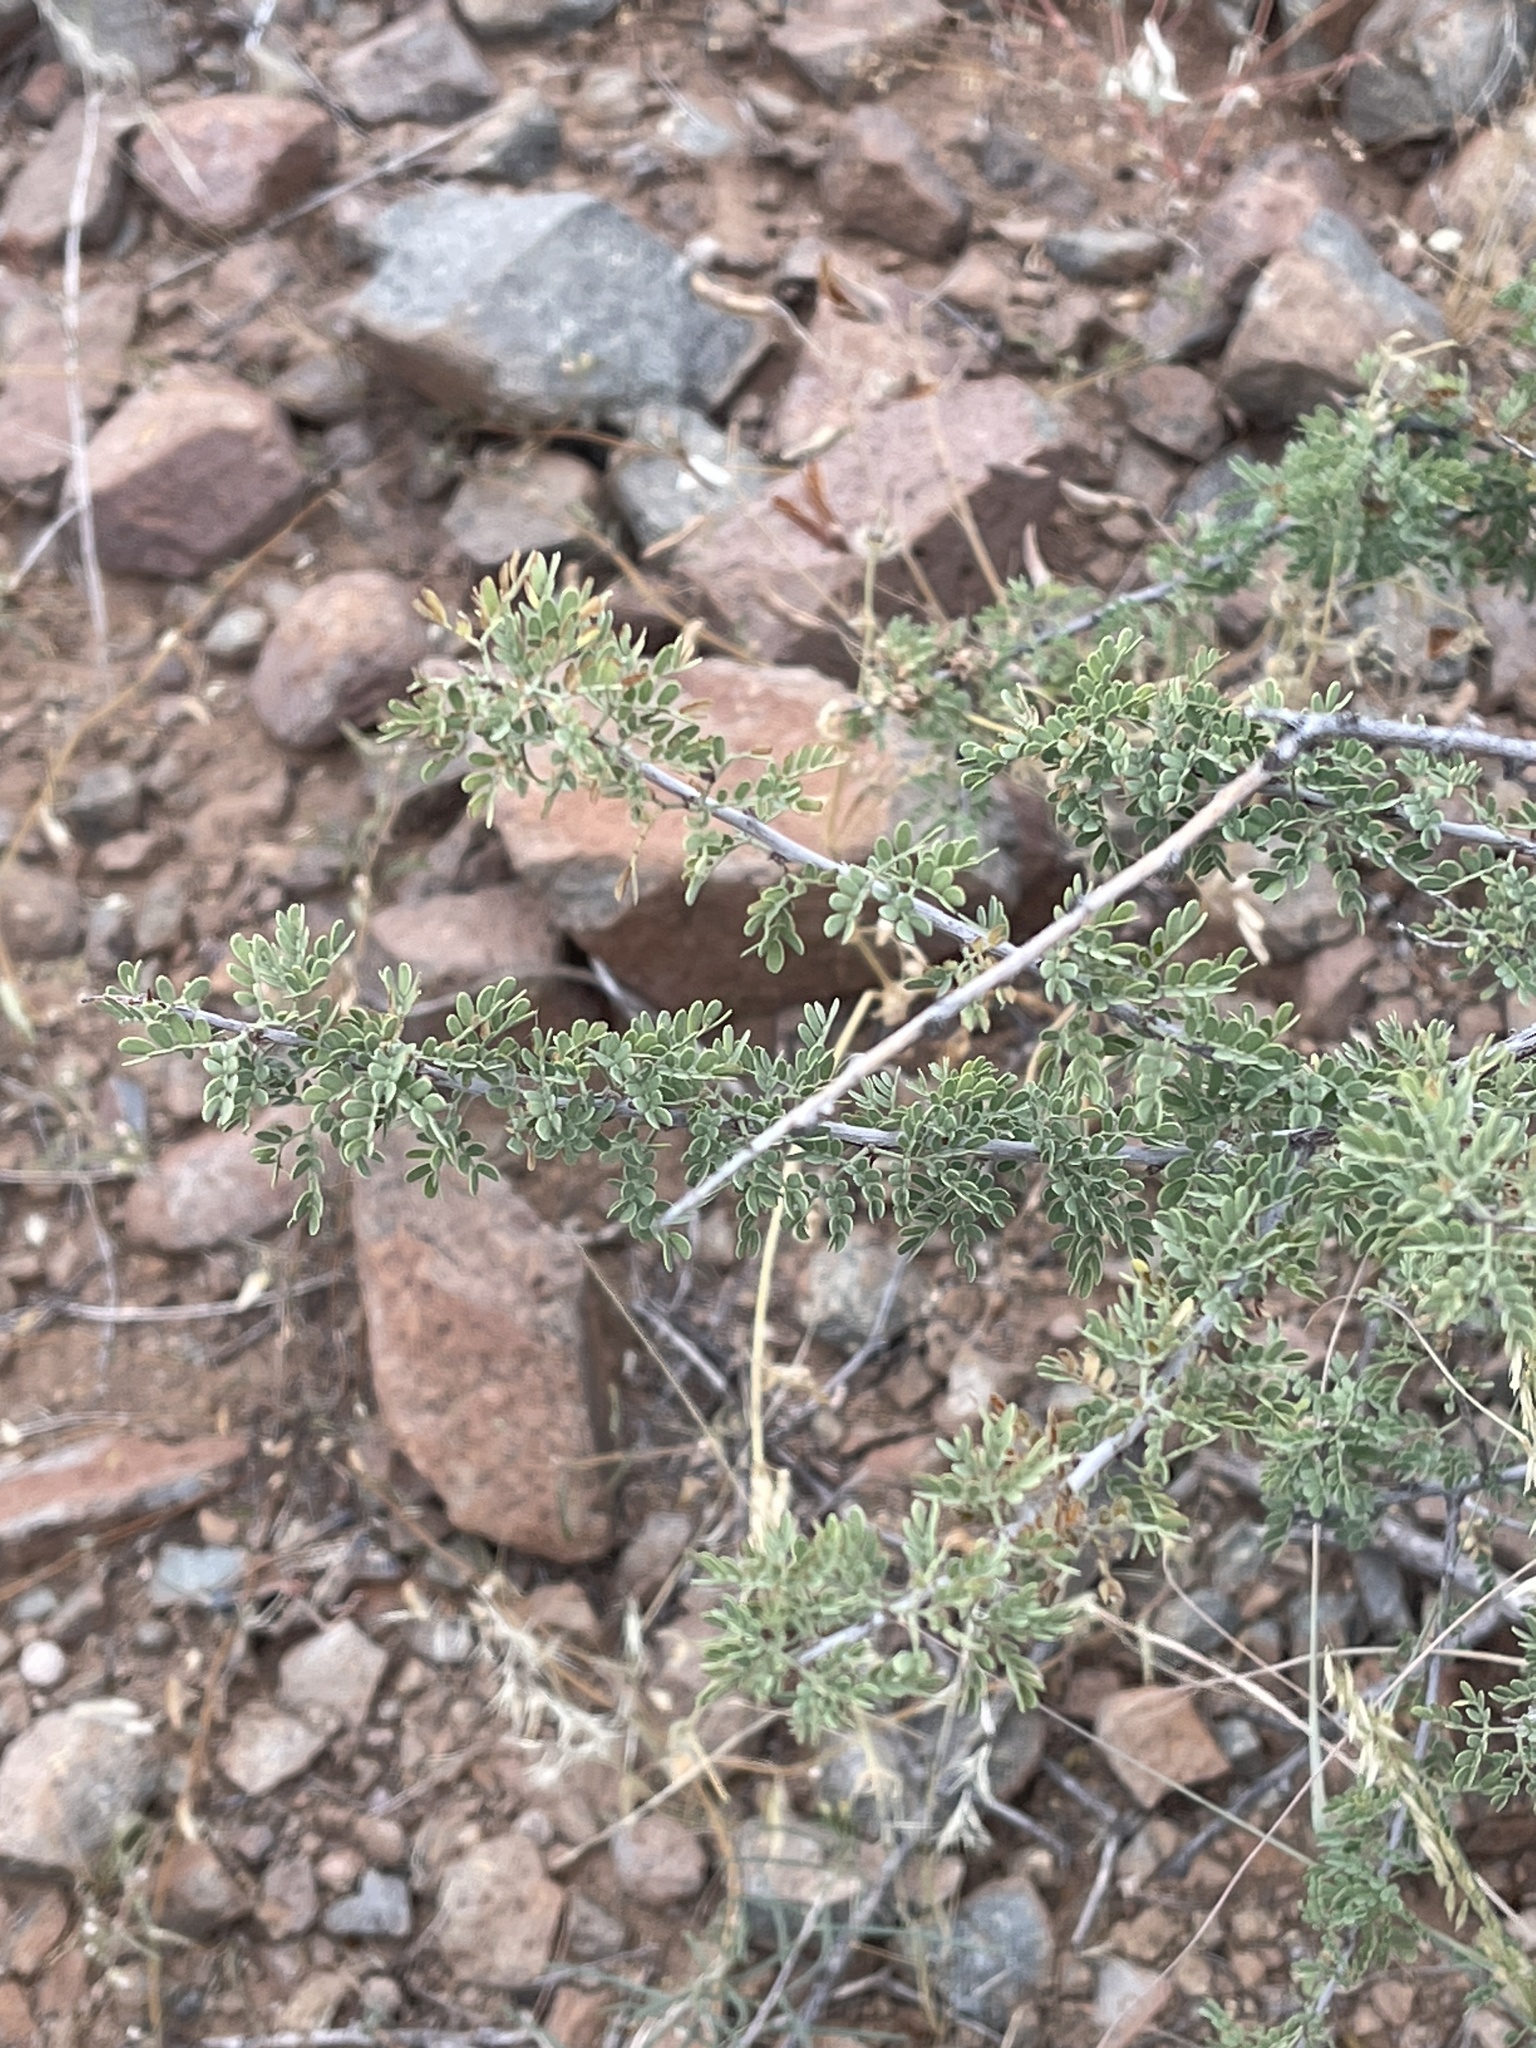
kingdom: Plantae
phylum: Tracheophyta
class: Magnoliopsida
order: Fabales
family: Fabaceae
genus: Senegalia
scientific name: Senegalia greggii
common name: Texas-mimosa
